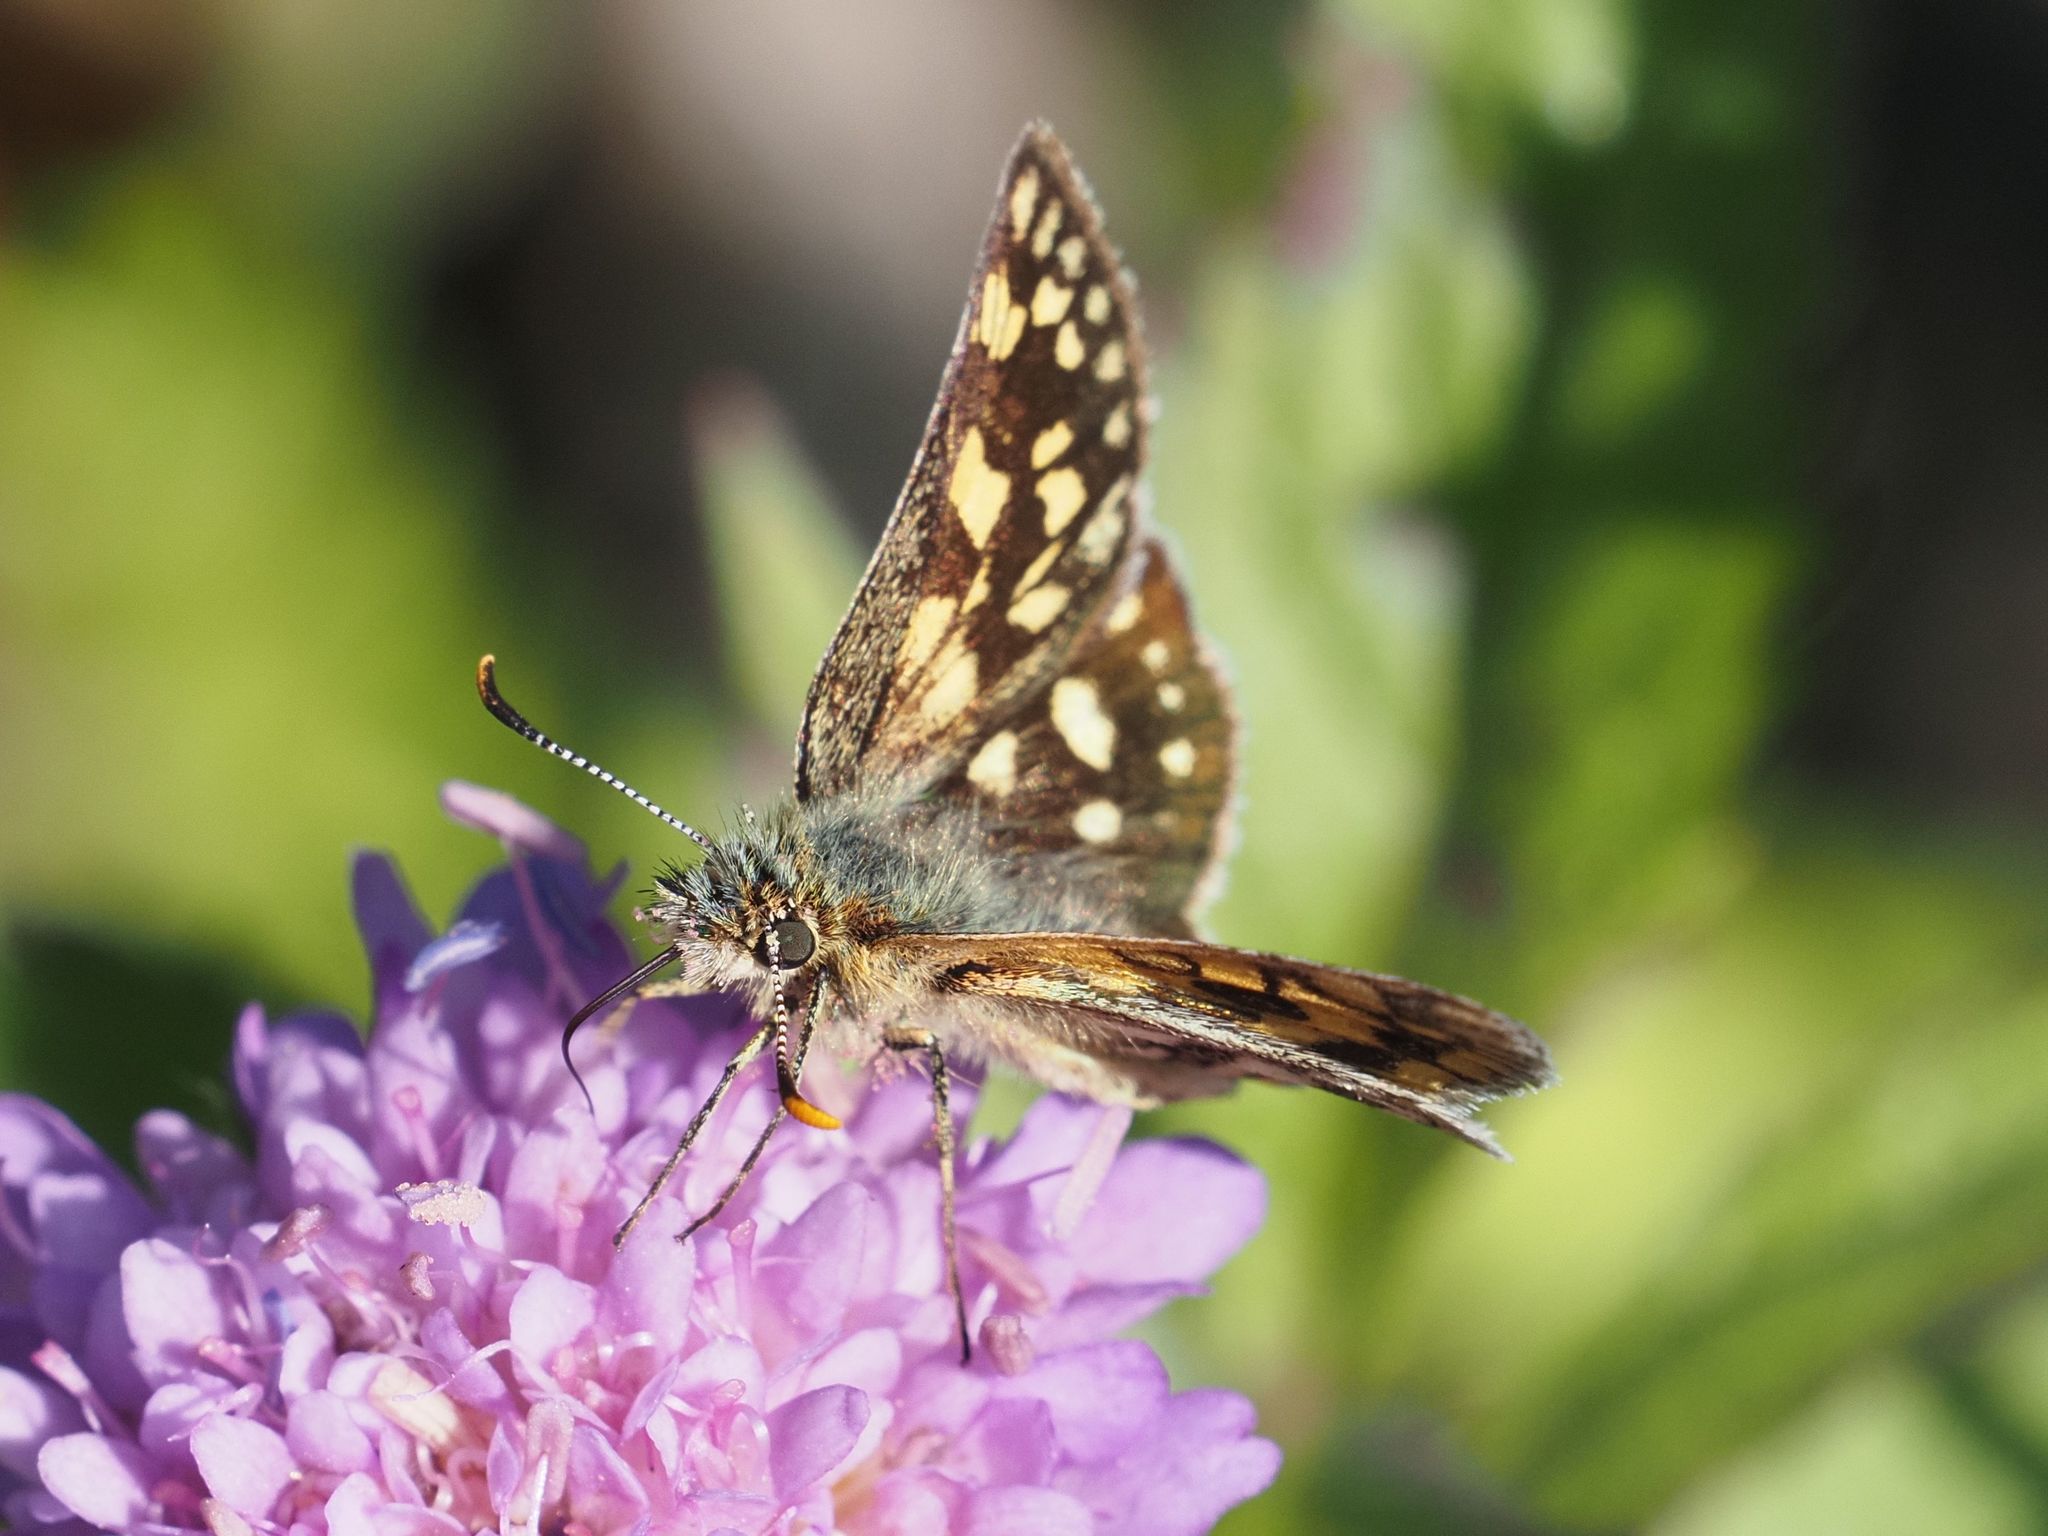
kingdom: Animalia
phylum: Arthropoda
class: Insecta
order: Lepidoptera
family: Hesperiidae
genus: Carterocephalus
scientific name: Carterocephalus palaemon
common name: Chequered skipper
